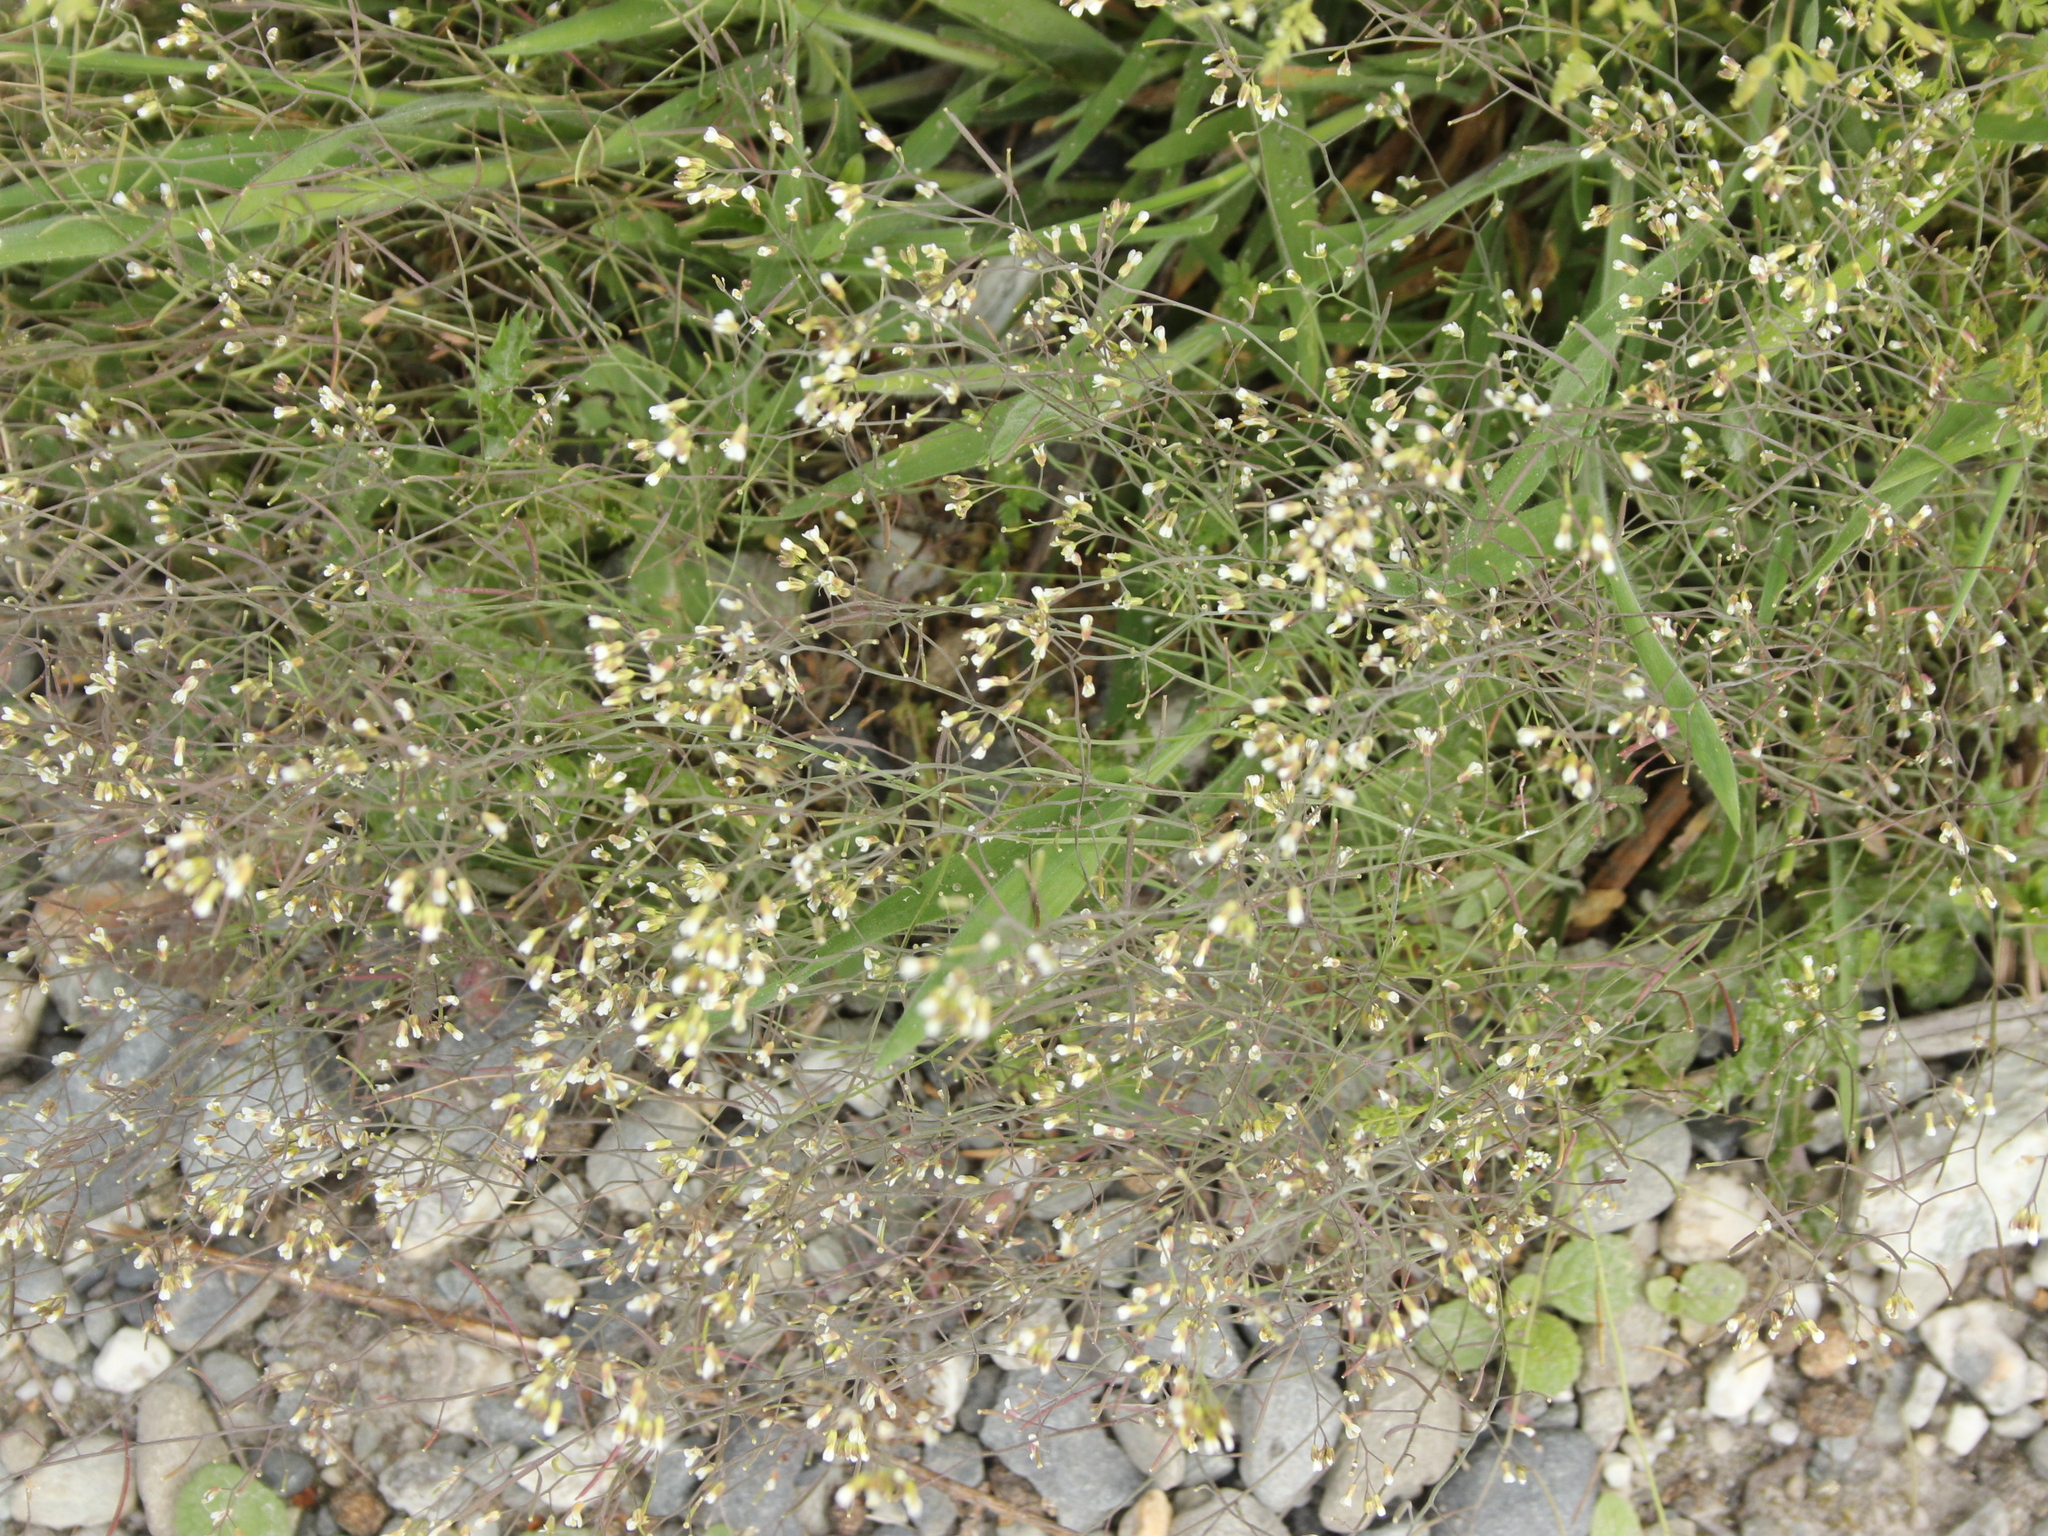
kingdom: Plantae
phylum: Tracheophyta
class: Magnoliopsida
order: Brassicales
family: Brassicaceae
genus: Arabidopsis
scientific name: Arabidopsis thaliana
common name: Thale cress
